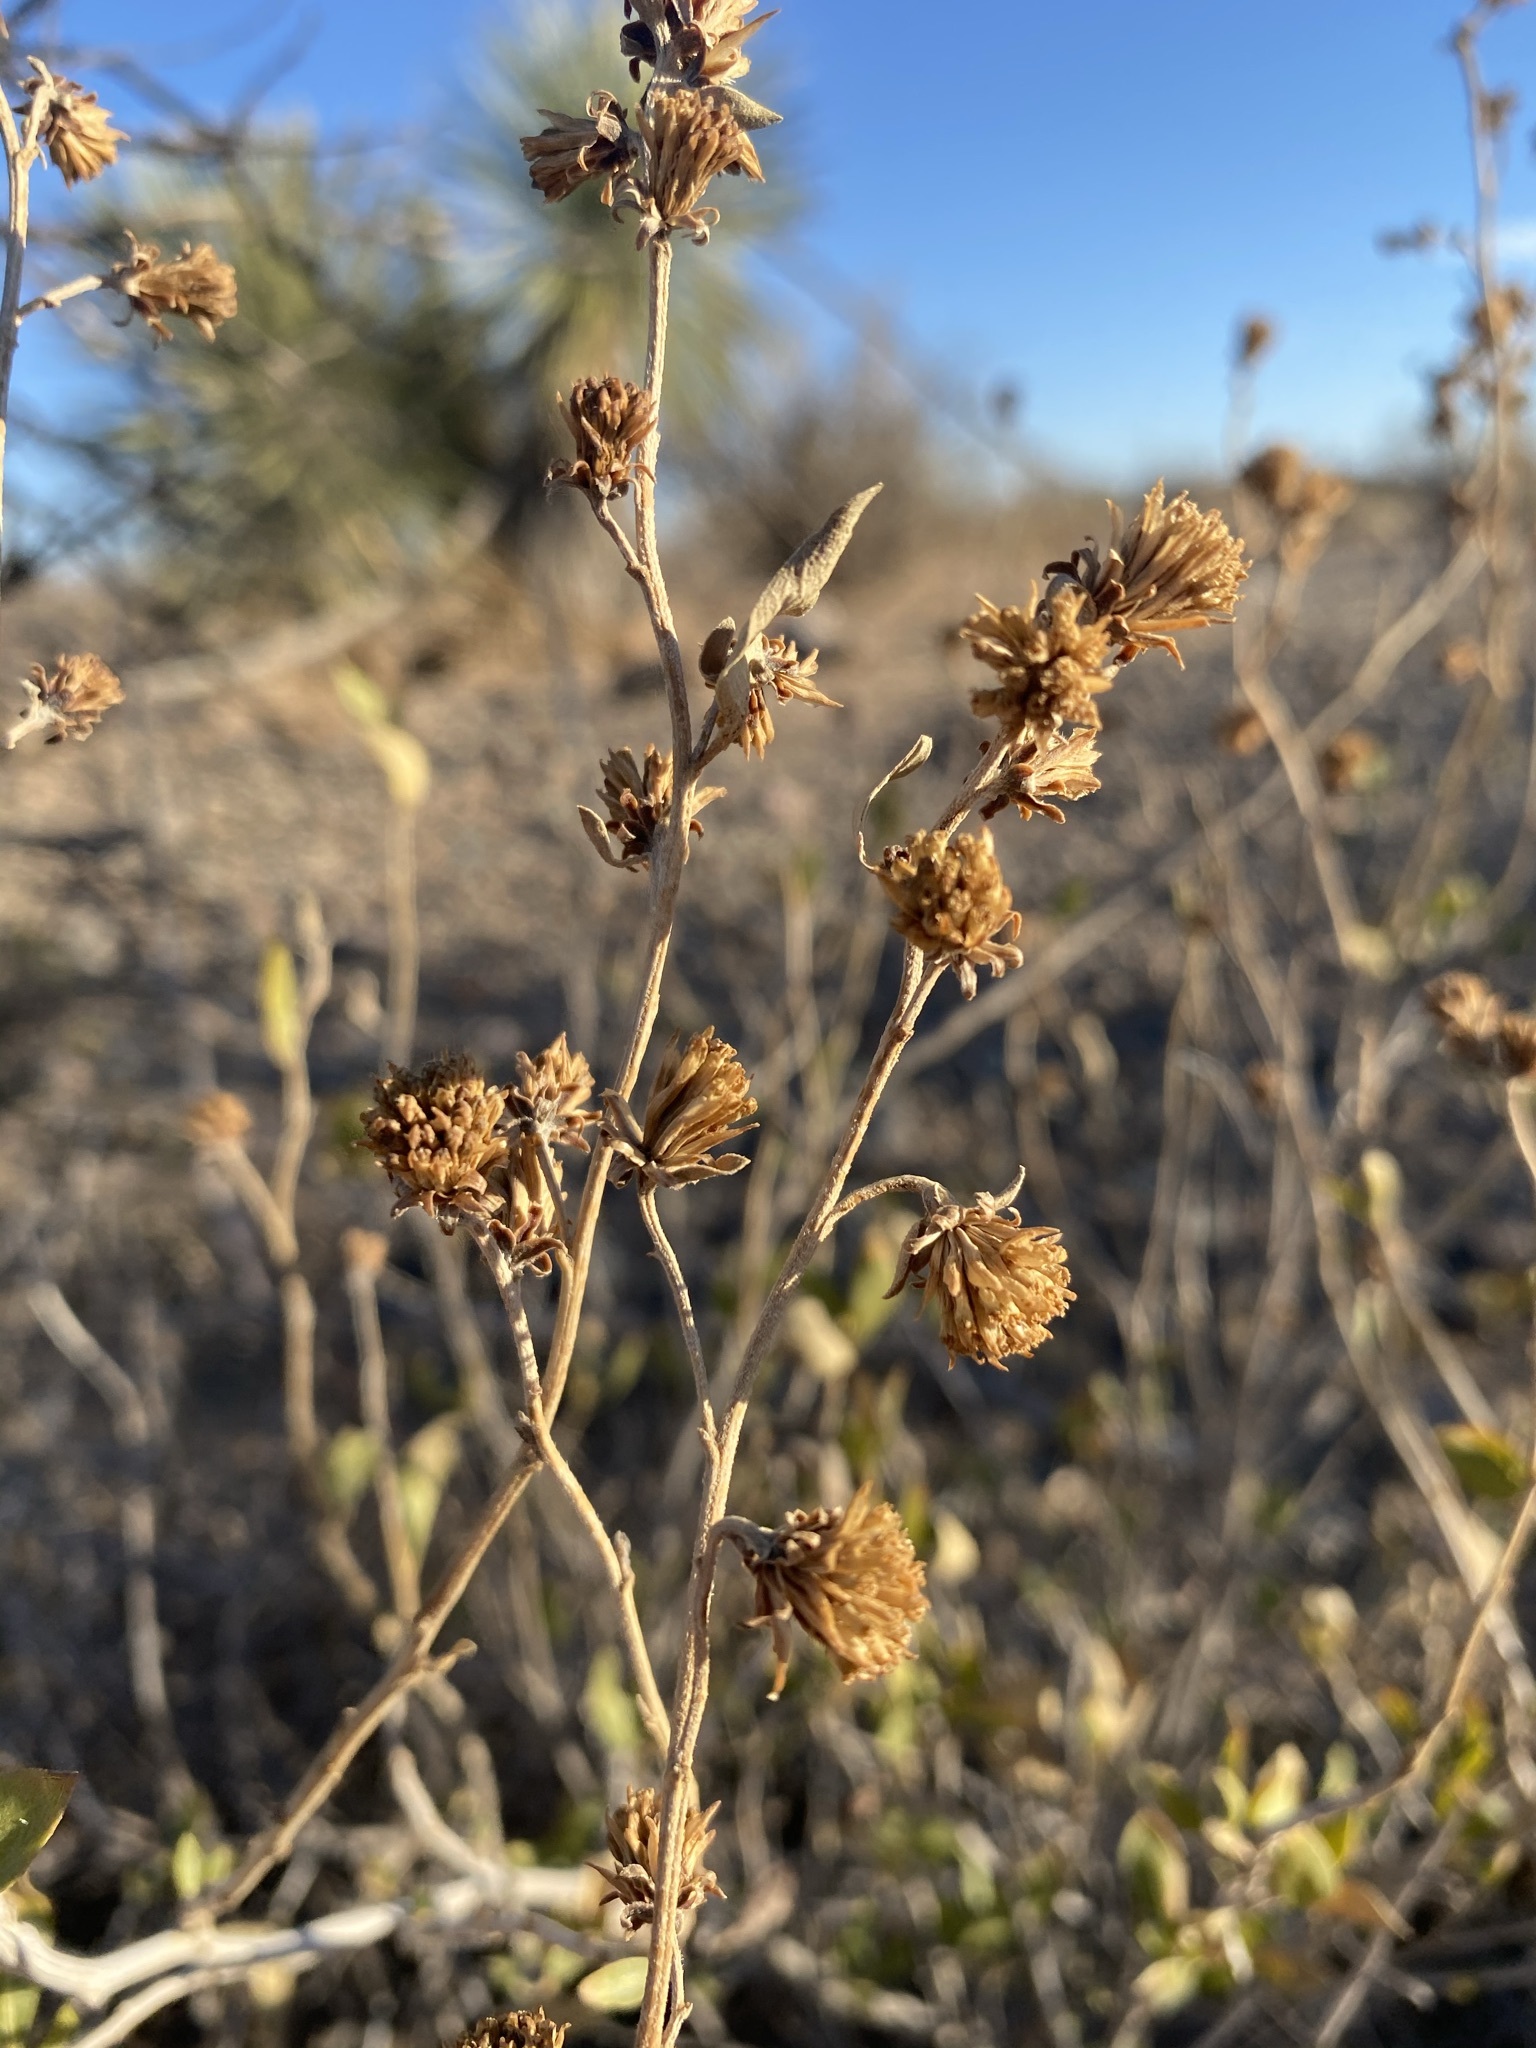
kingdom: Plantae
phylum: Tracheophyta
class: Magnoliopsida
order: Asterales
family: Asteraceae
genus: Flourensia
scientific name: Flourensia cernua
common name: Varnishbush
